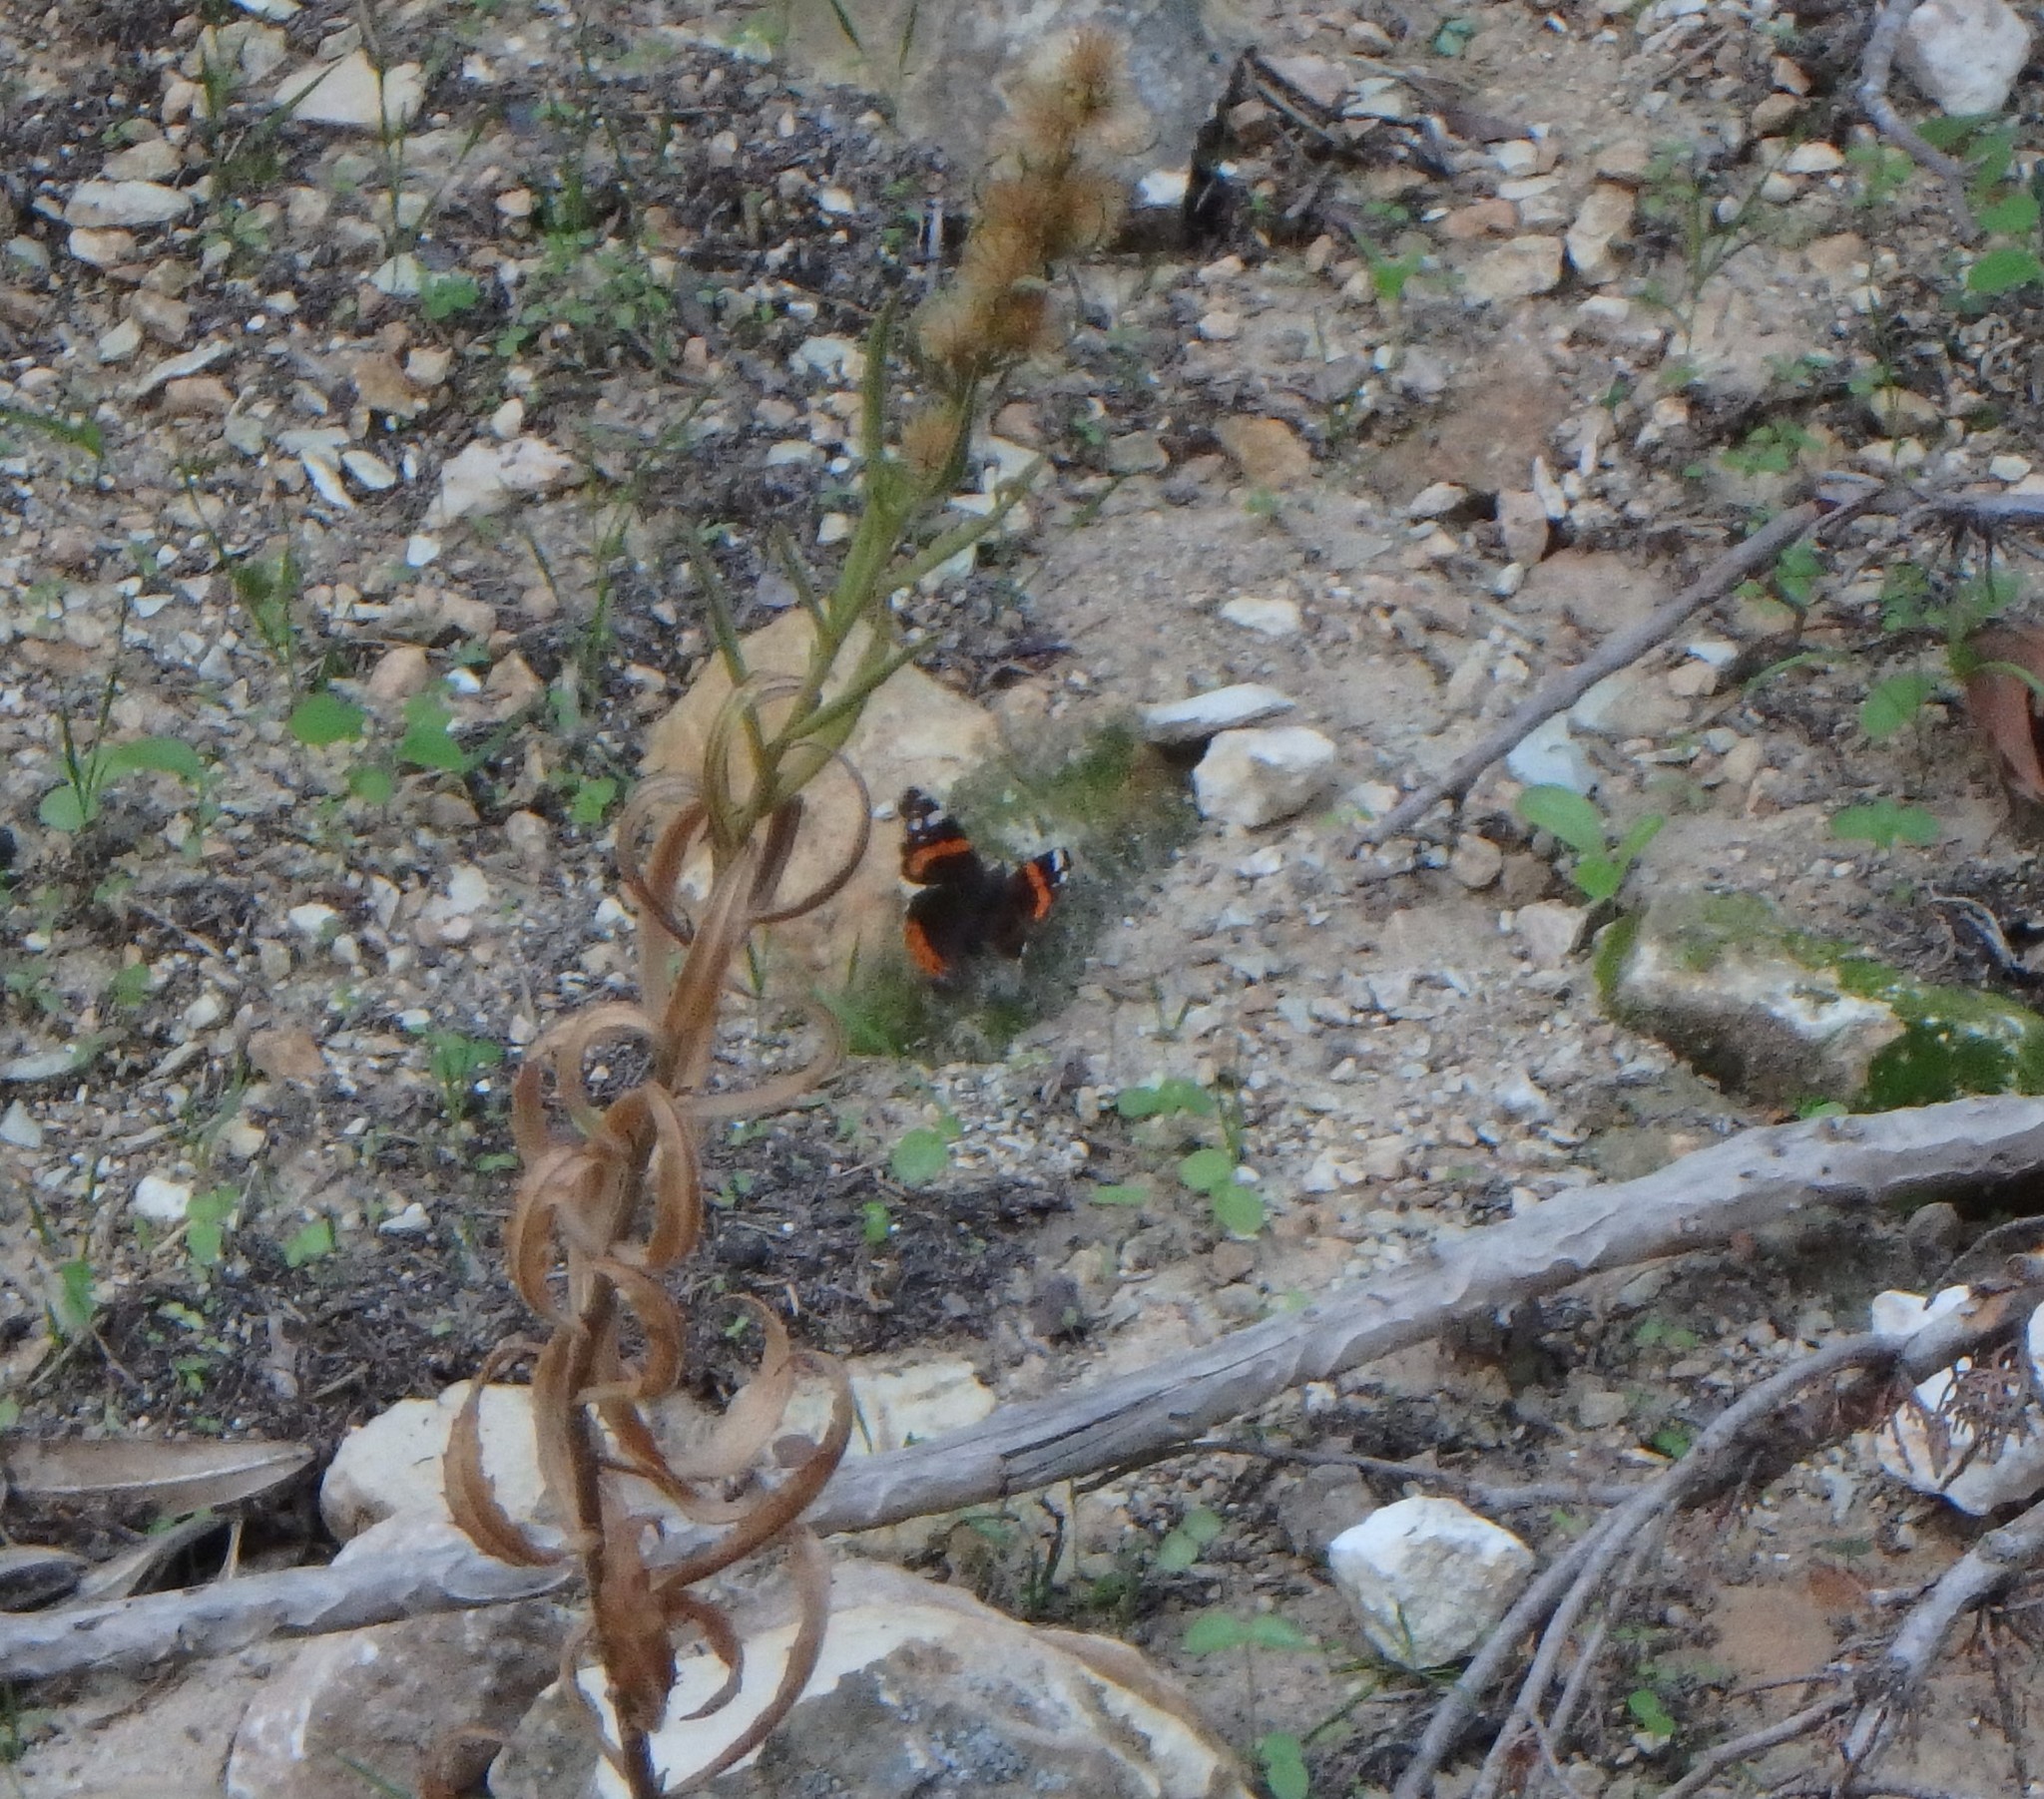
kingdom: Animalia
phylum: Arthropoda
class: Insecta
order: Lepidoptera
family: Nymphalidae
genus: Vanessa
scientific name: Vanessa atalanta
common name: Red admiral
